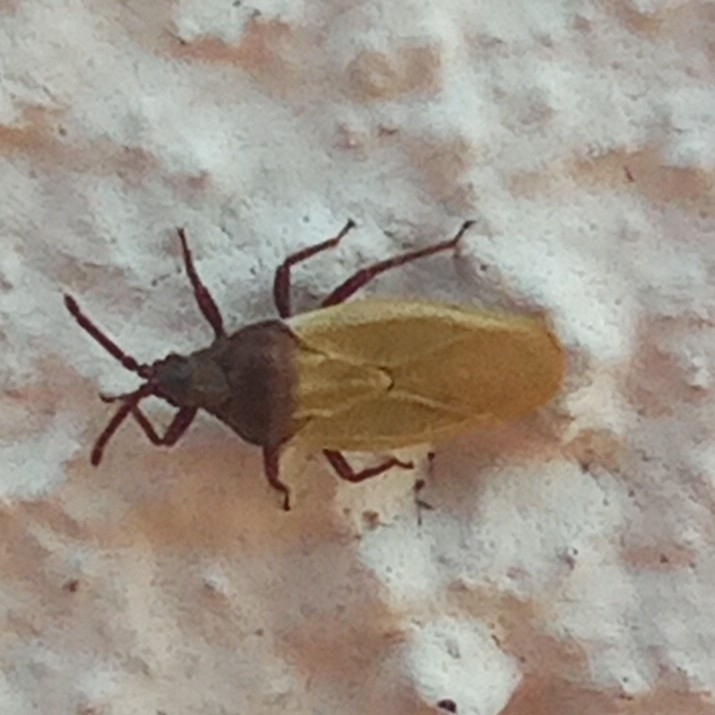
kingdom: Animalia
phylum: Arthropoda
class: Insecta
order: Hemiptera
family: Tingidae
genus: Catoplatus
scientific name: Catoplatus carthusianus
